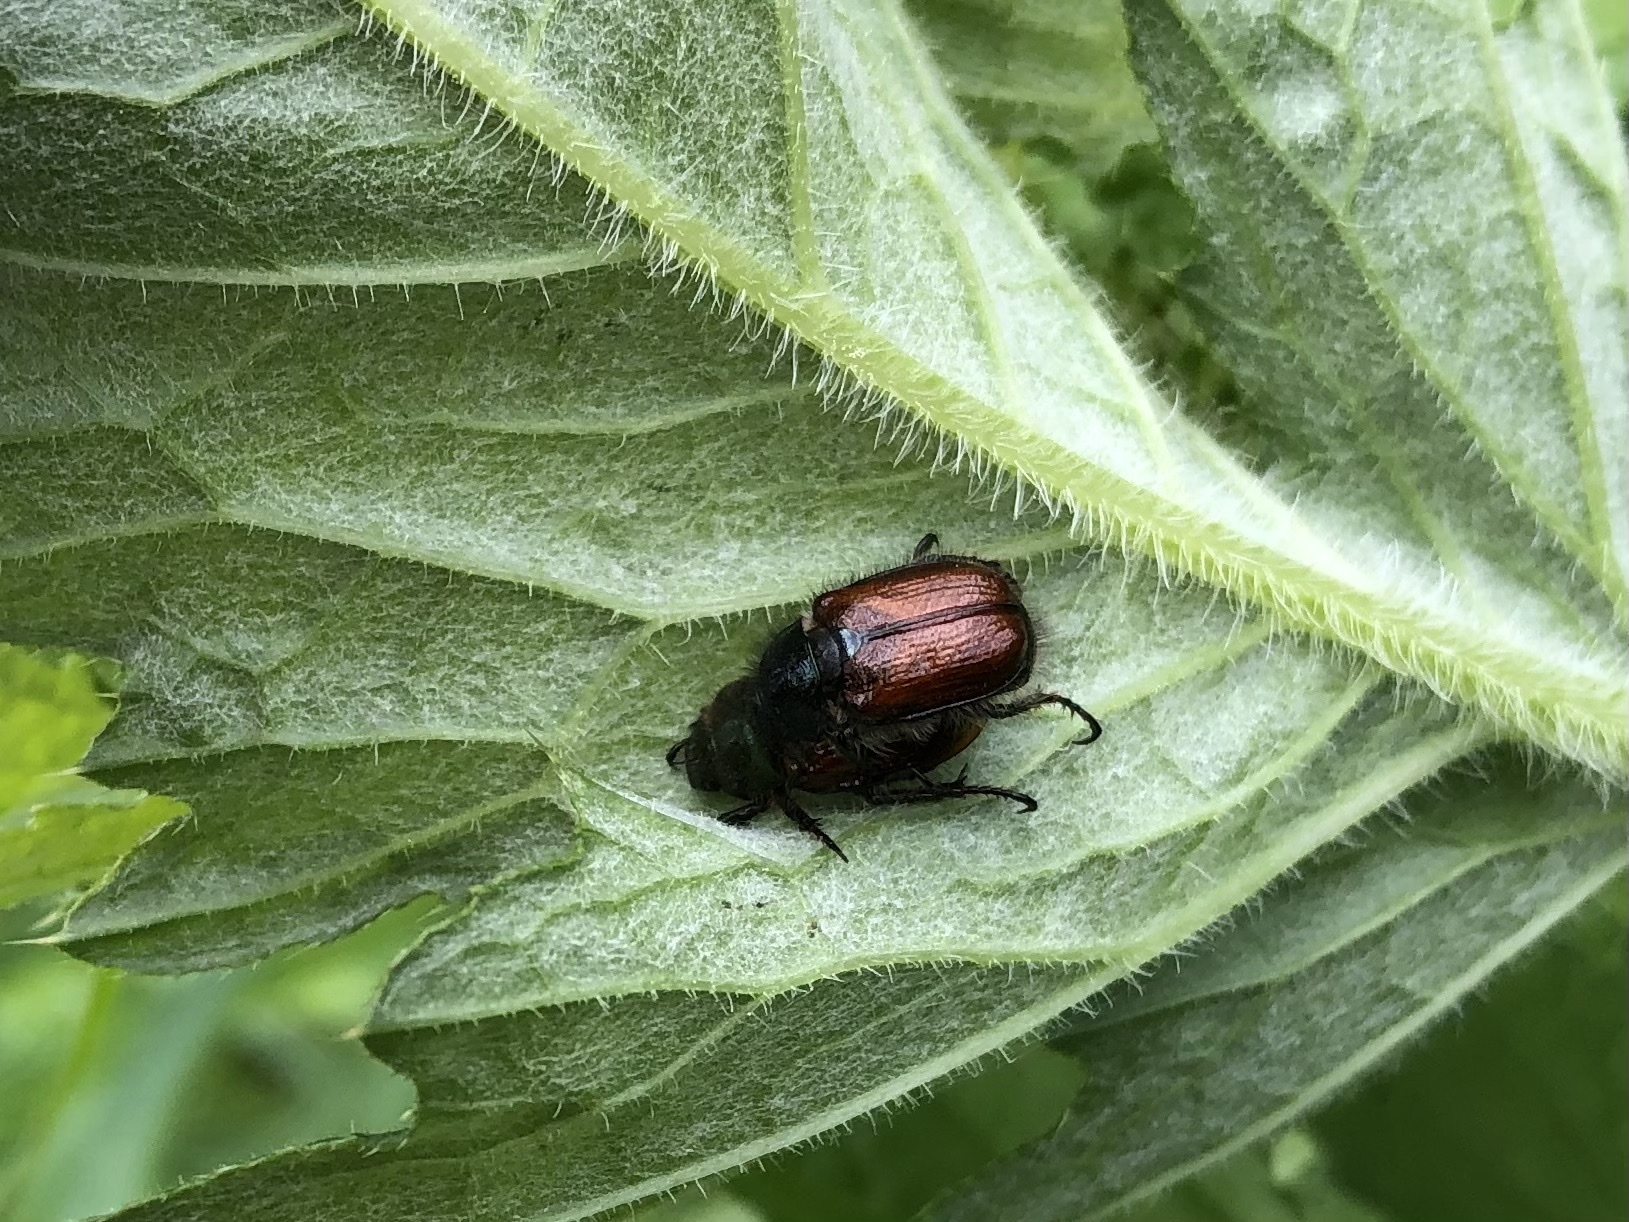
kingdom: Animalia
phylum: Arthropoda
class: Insecta
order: Coleoptera
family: Scarabaeidae
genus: Phyllopertha
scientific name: Phyllopertha horticola
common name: Garden chafer
